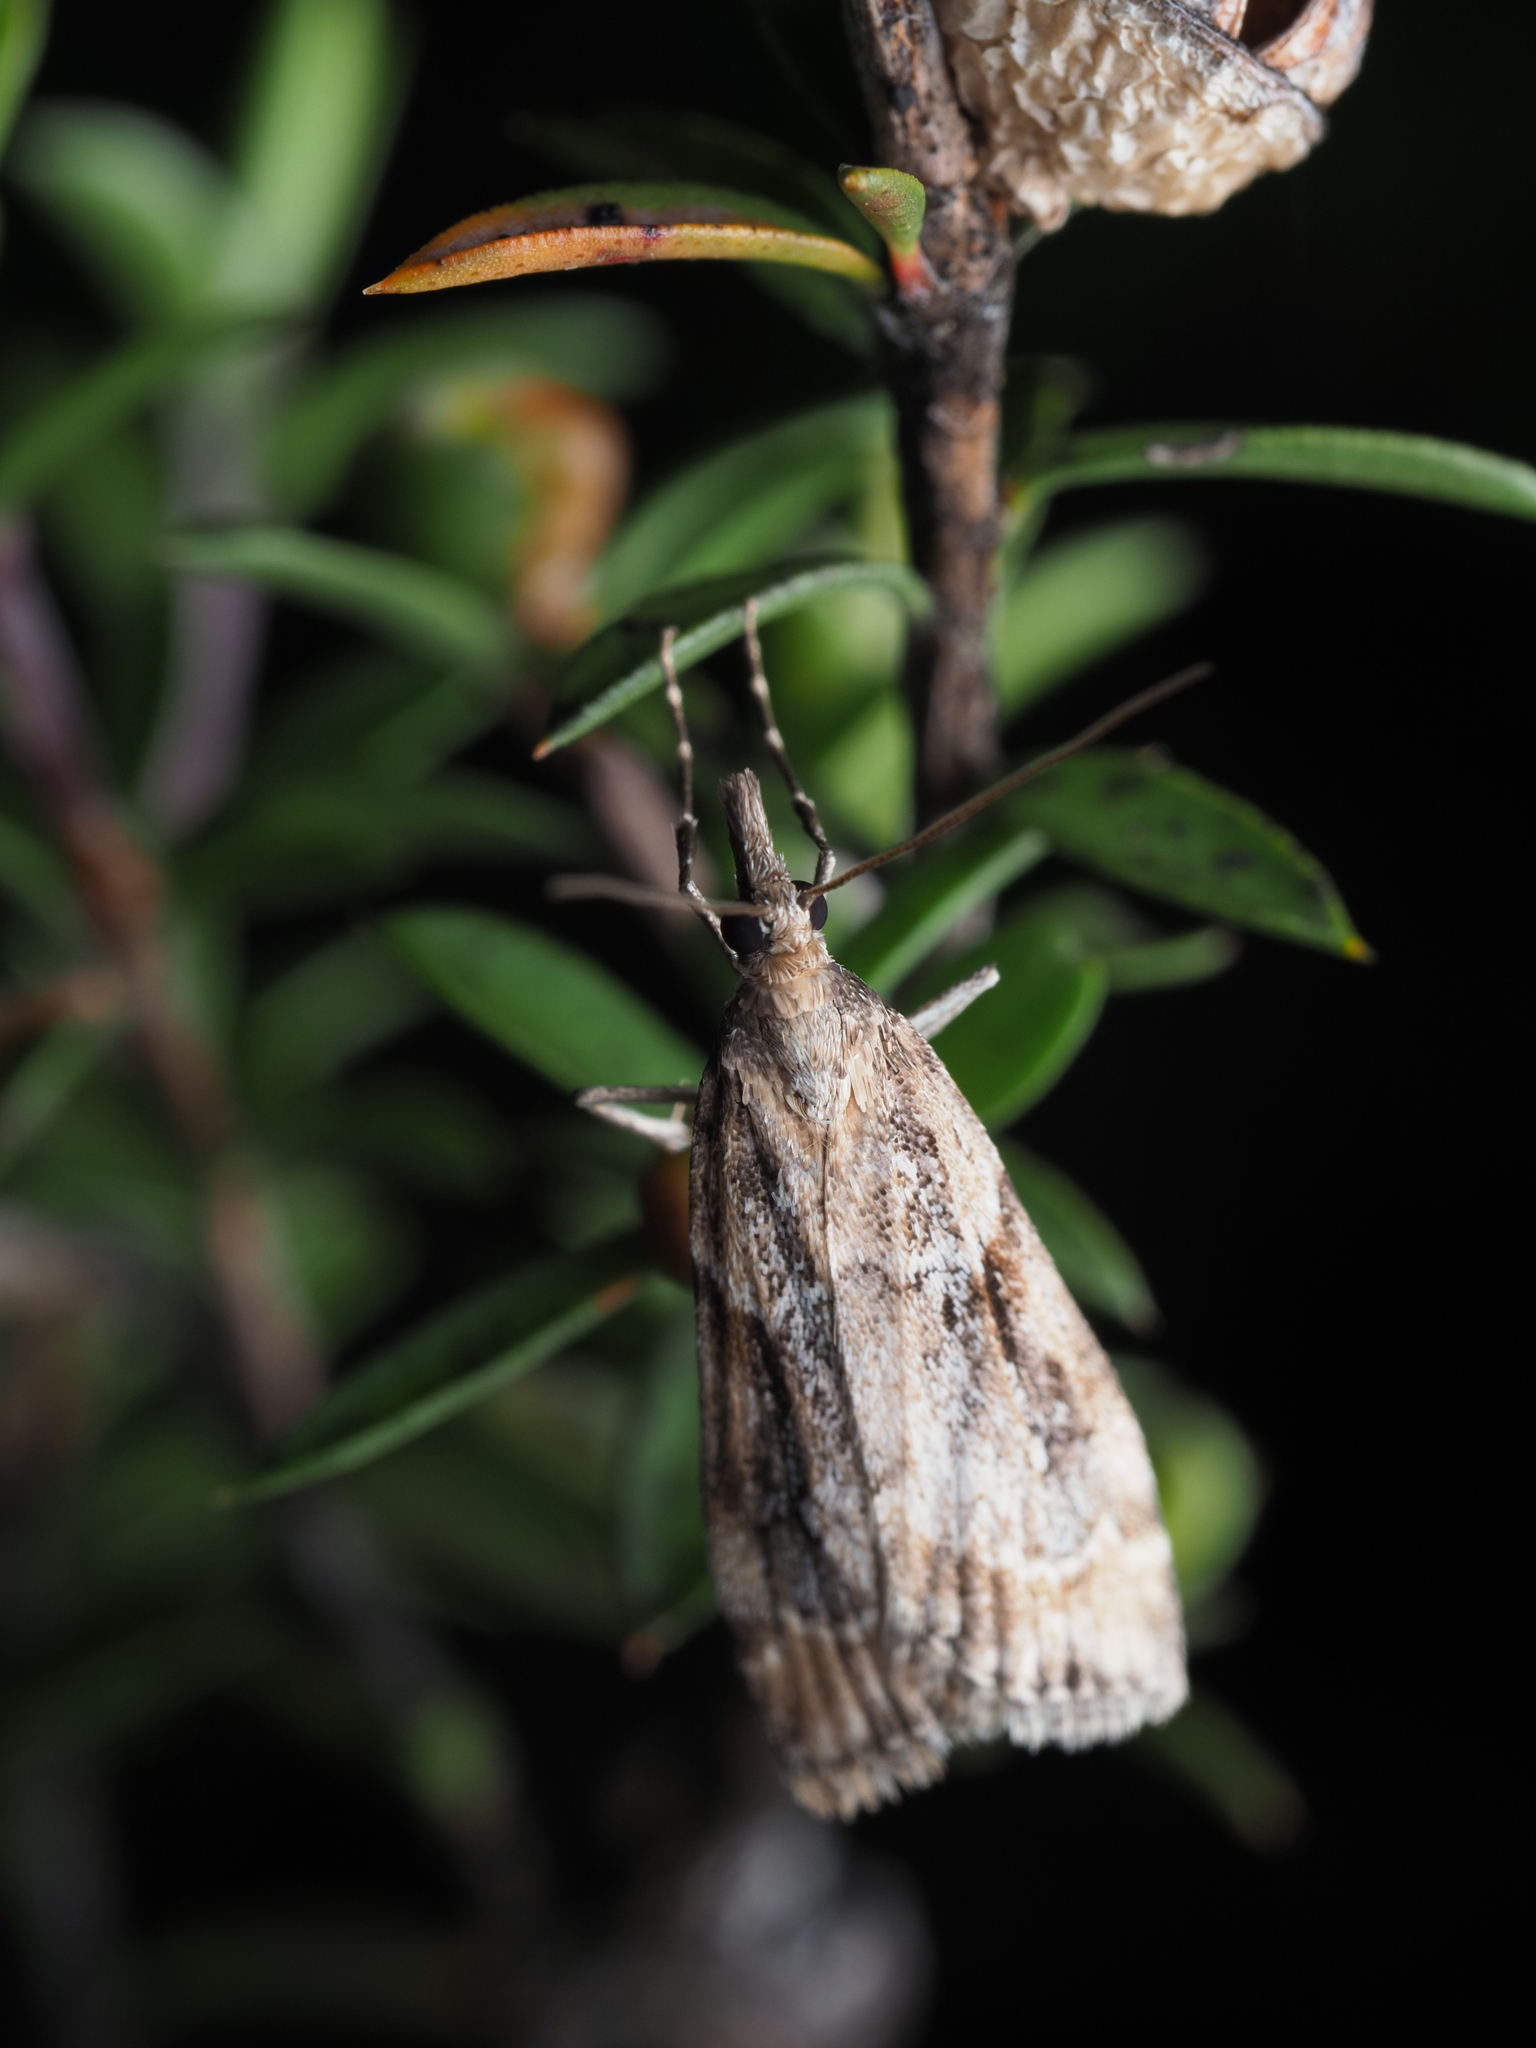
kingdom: Animalia
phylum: Arthropoda
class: Insecta
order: Lepidoptera
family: Crambidae
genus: Eudonia
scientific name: Eudonia chalara
